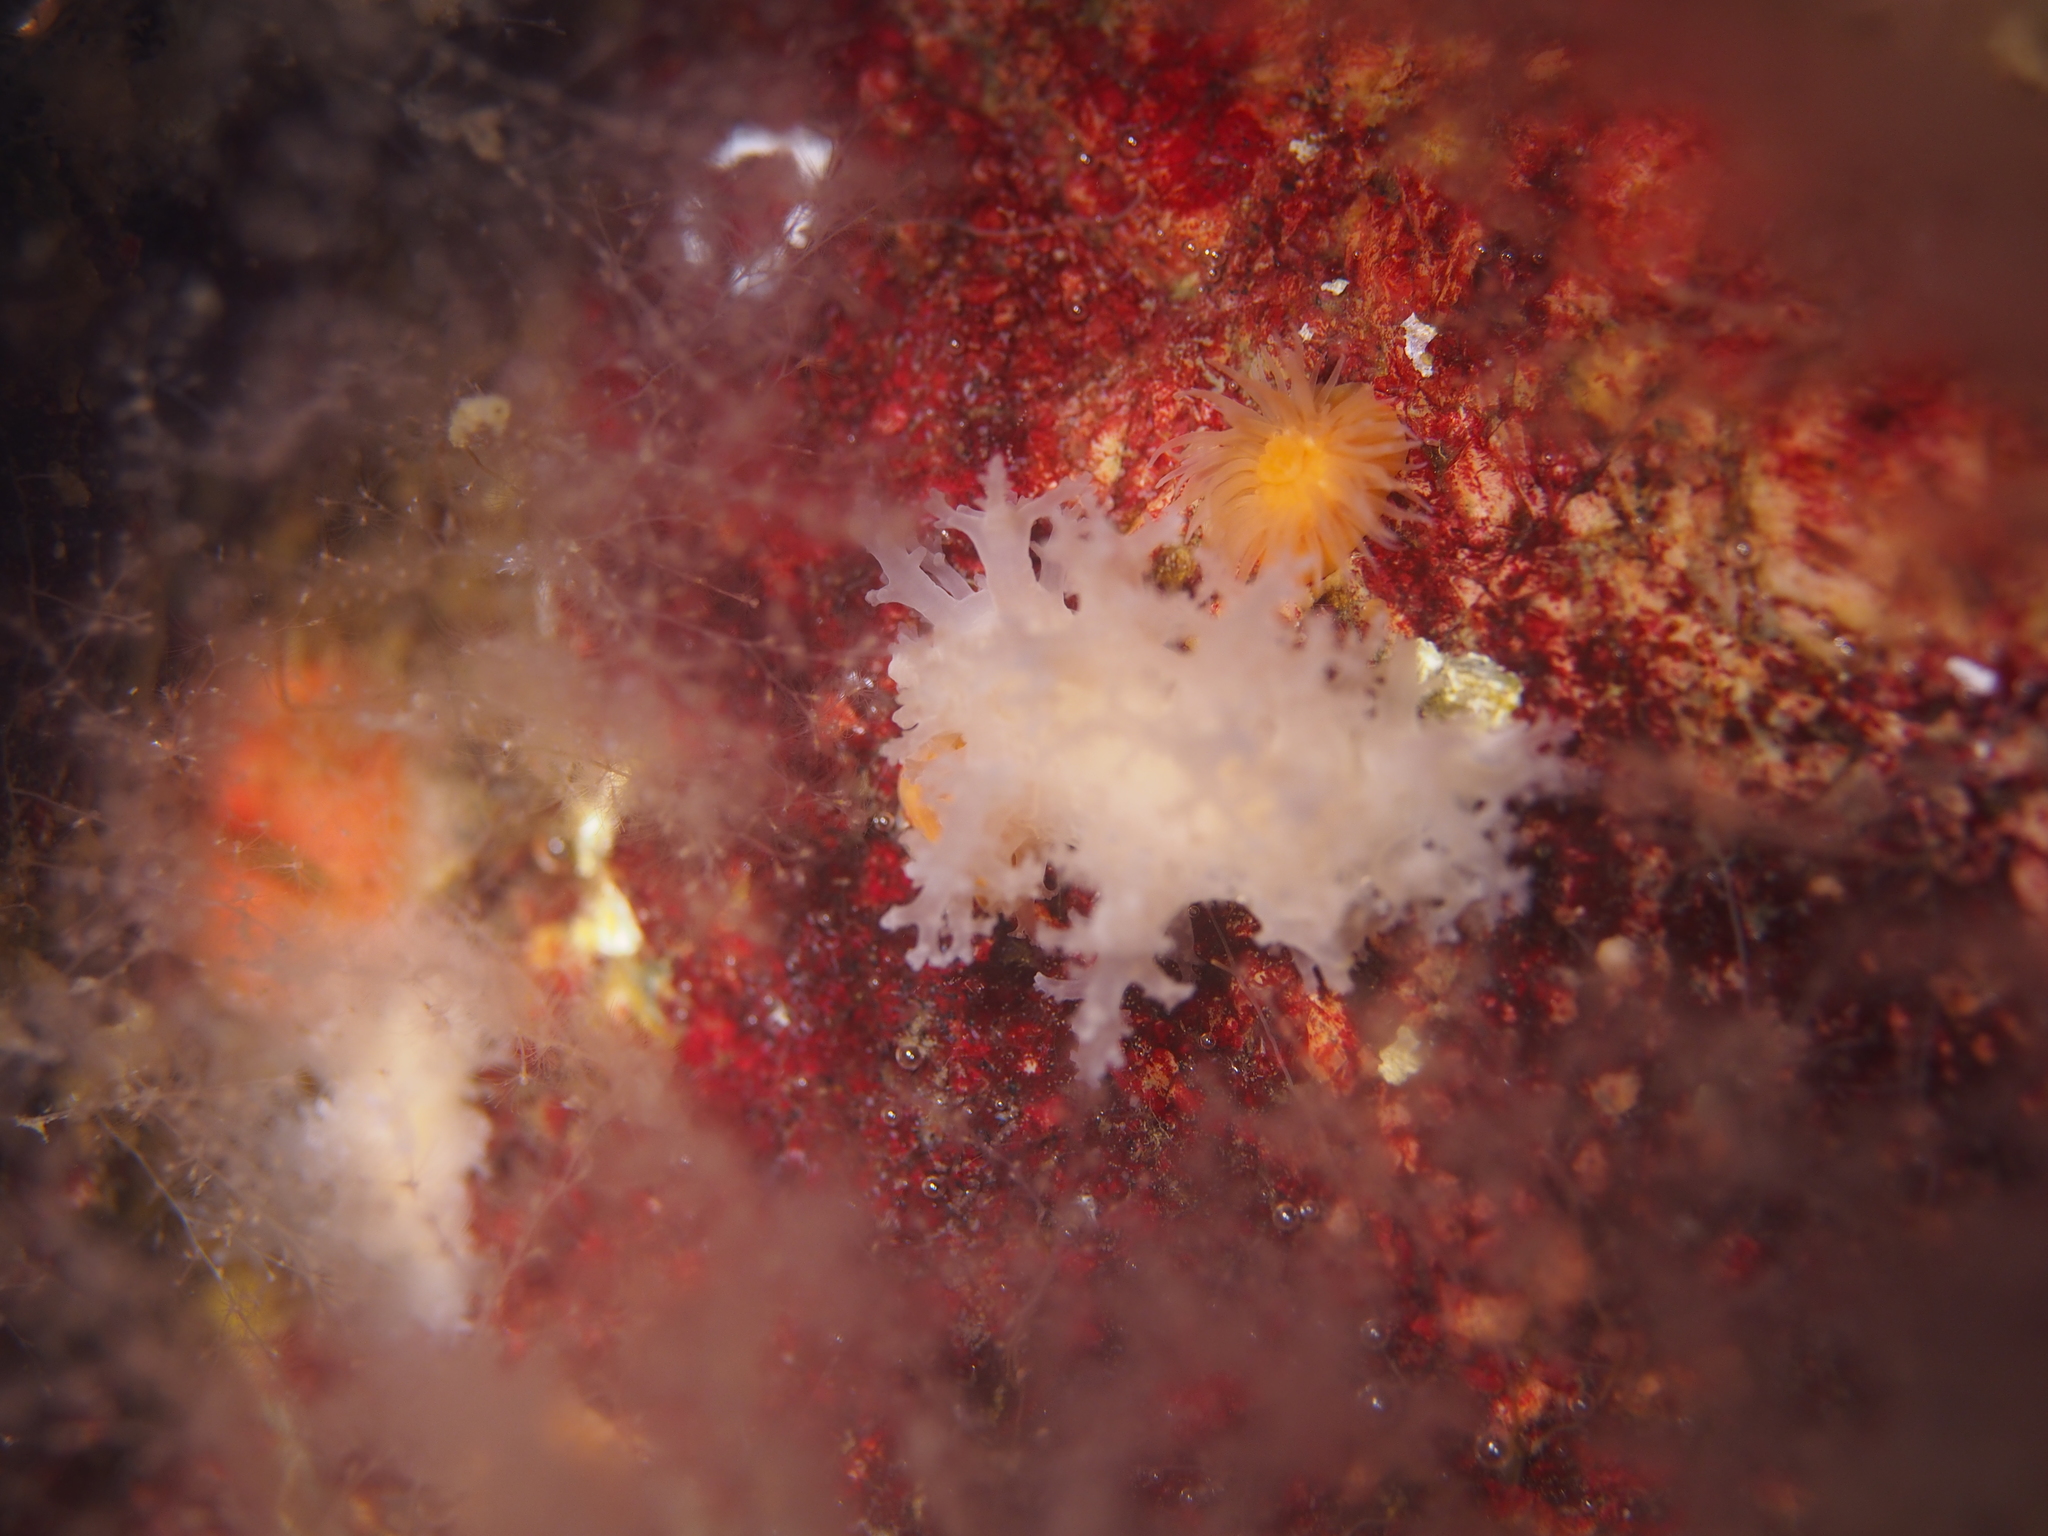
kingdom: Animalia
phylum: Mollusca
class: Gastropoda
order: Nudibranchia
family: Dendronotidae
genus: Dendronotus
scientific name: Dendronotus frondosus
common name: Bushy-backed nudibranch
